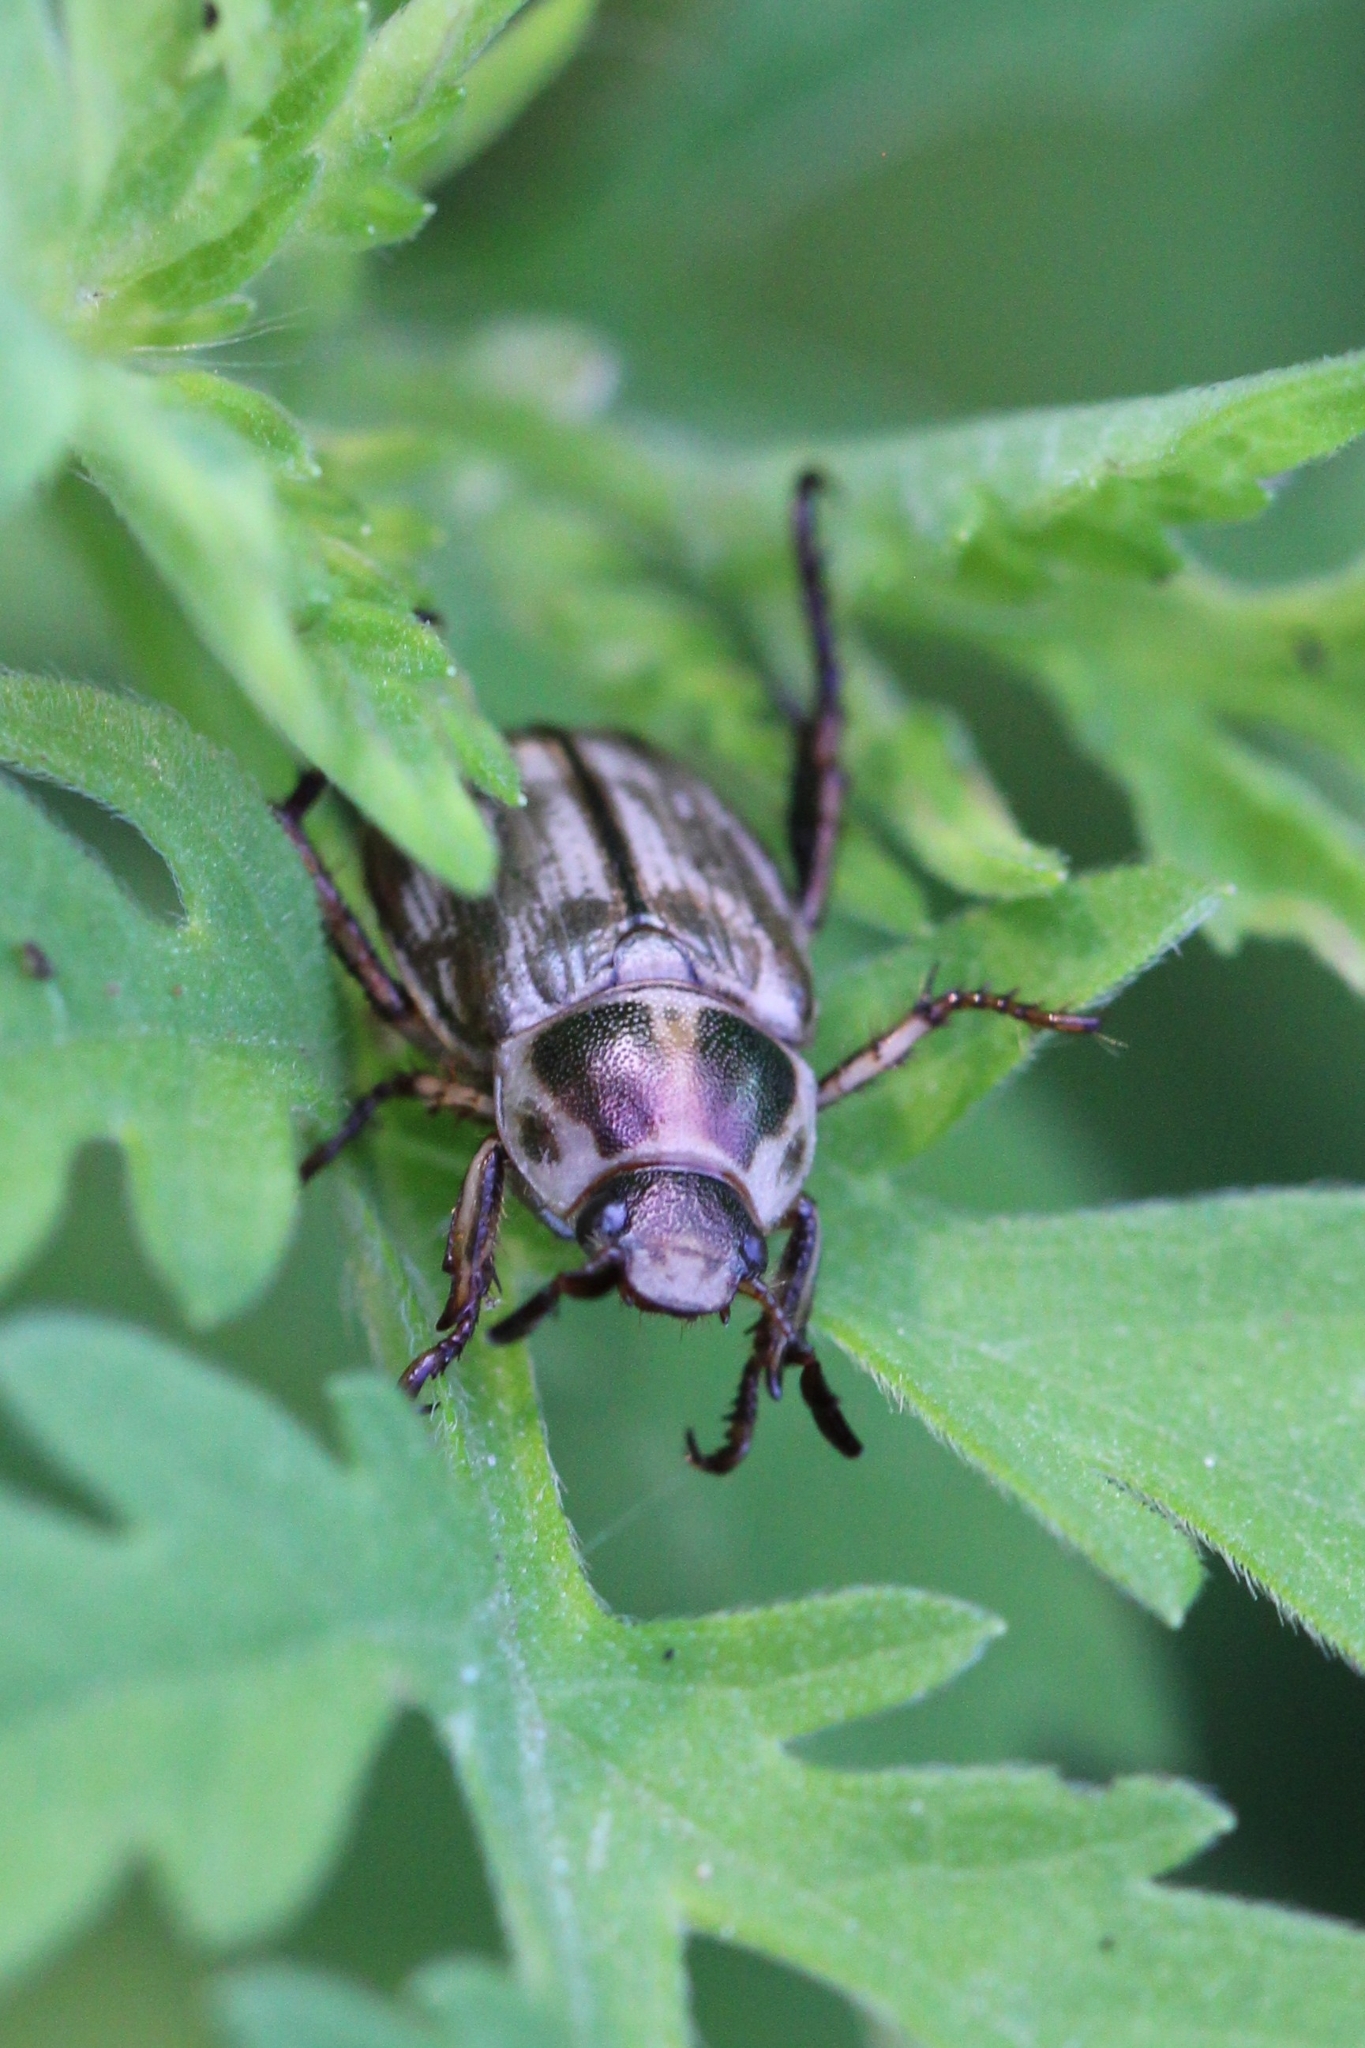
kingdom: Animalia
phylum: Arthropoda
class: Insecta
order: Coleoptera
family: Scarabaeidae
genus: Exomala
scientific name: Exomala orientalis
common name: Oriental beetle
